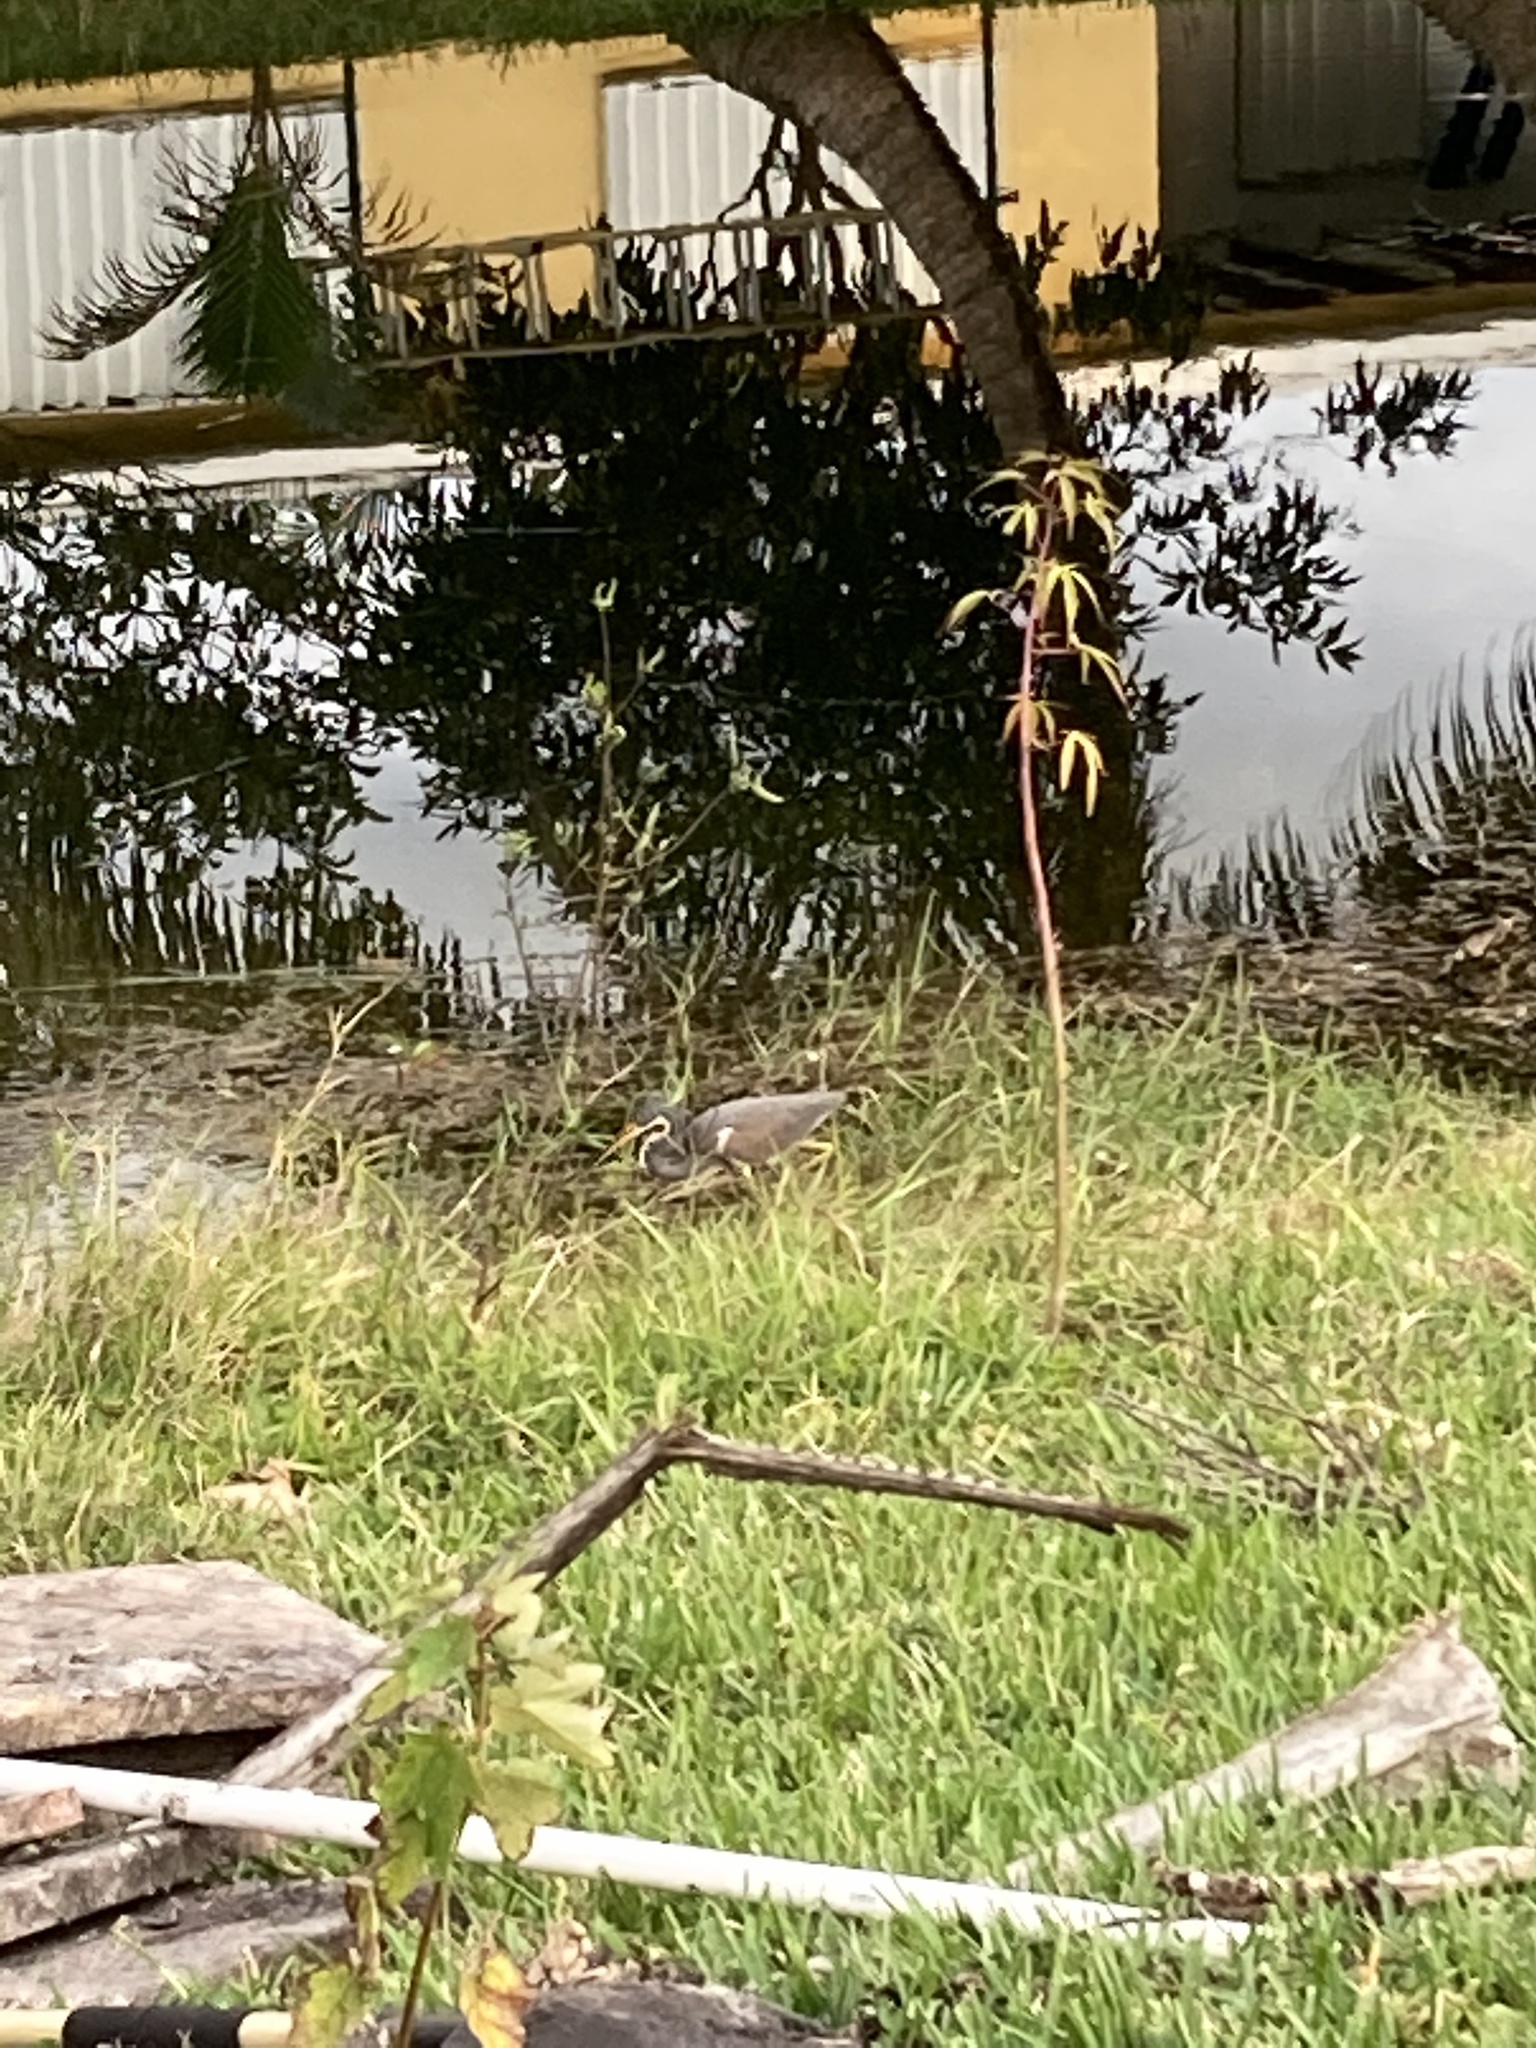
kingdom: Animalia
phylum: Chordata
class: Aves
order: Pelecaniformes
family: Ardeidae
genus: Egretta
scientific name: Egretta tricolor
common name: Tricolored heron
